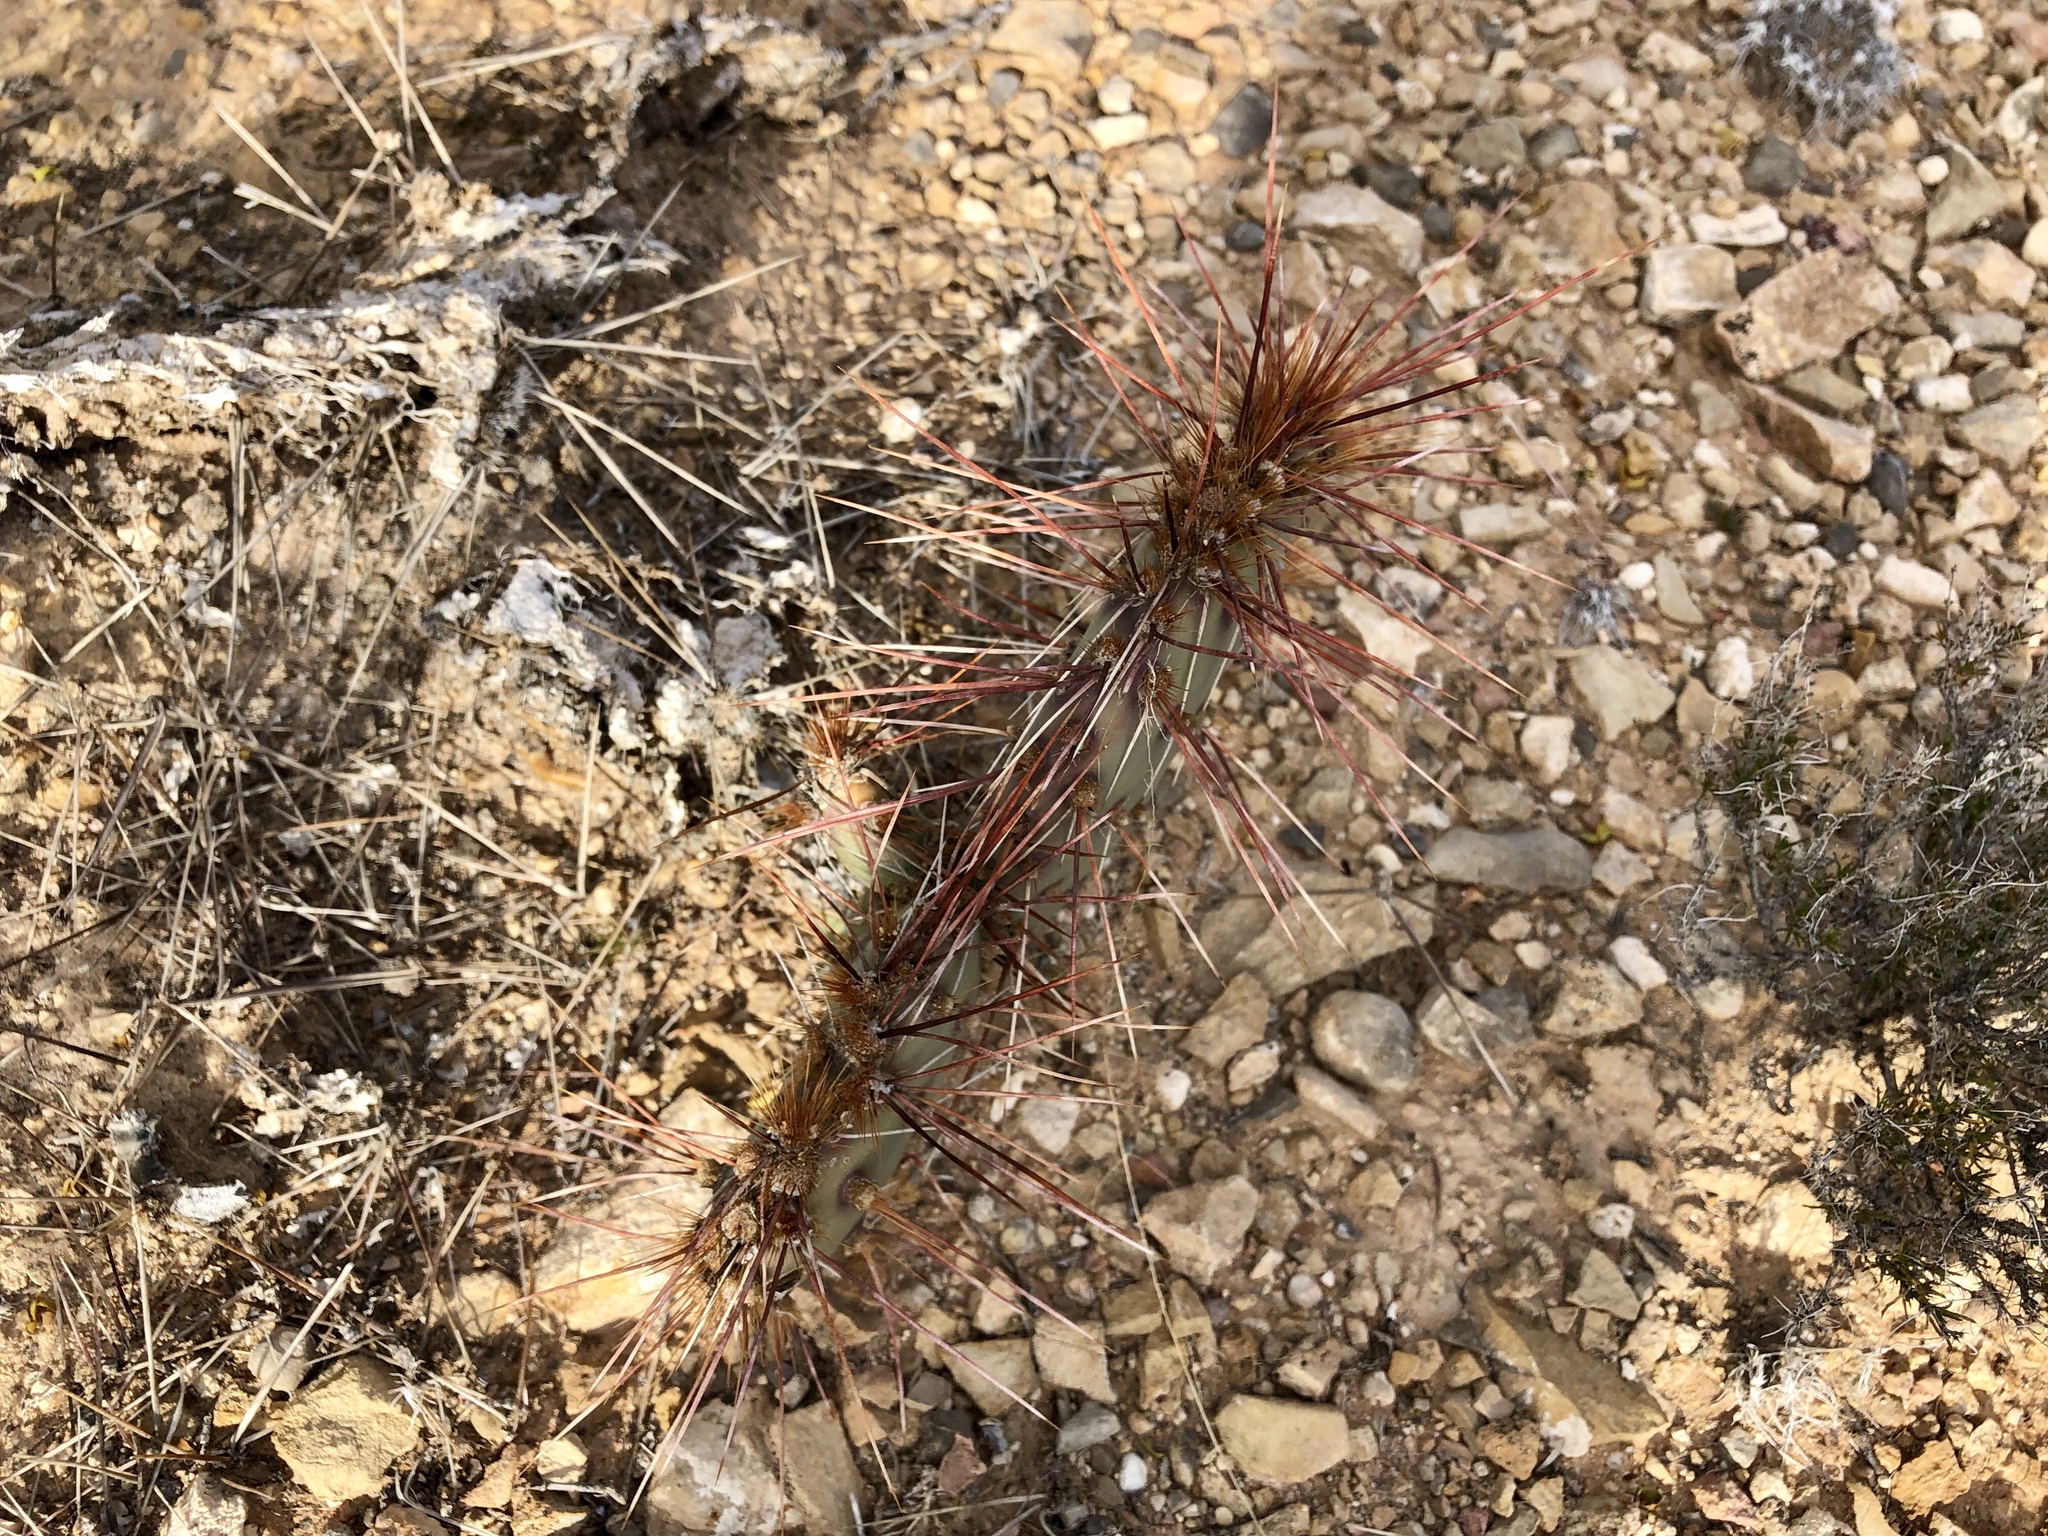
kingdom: Plantae
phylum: Tracheophyta
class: Magnoliopsida
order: Caryophyllales
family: Cactaceae
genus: Opuntia
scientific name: Opuntia phaeacantha
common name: New mexico prickly-pear
